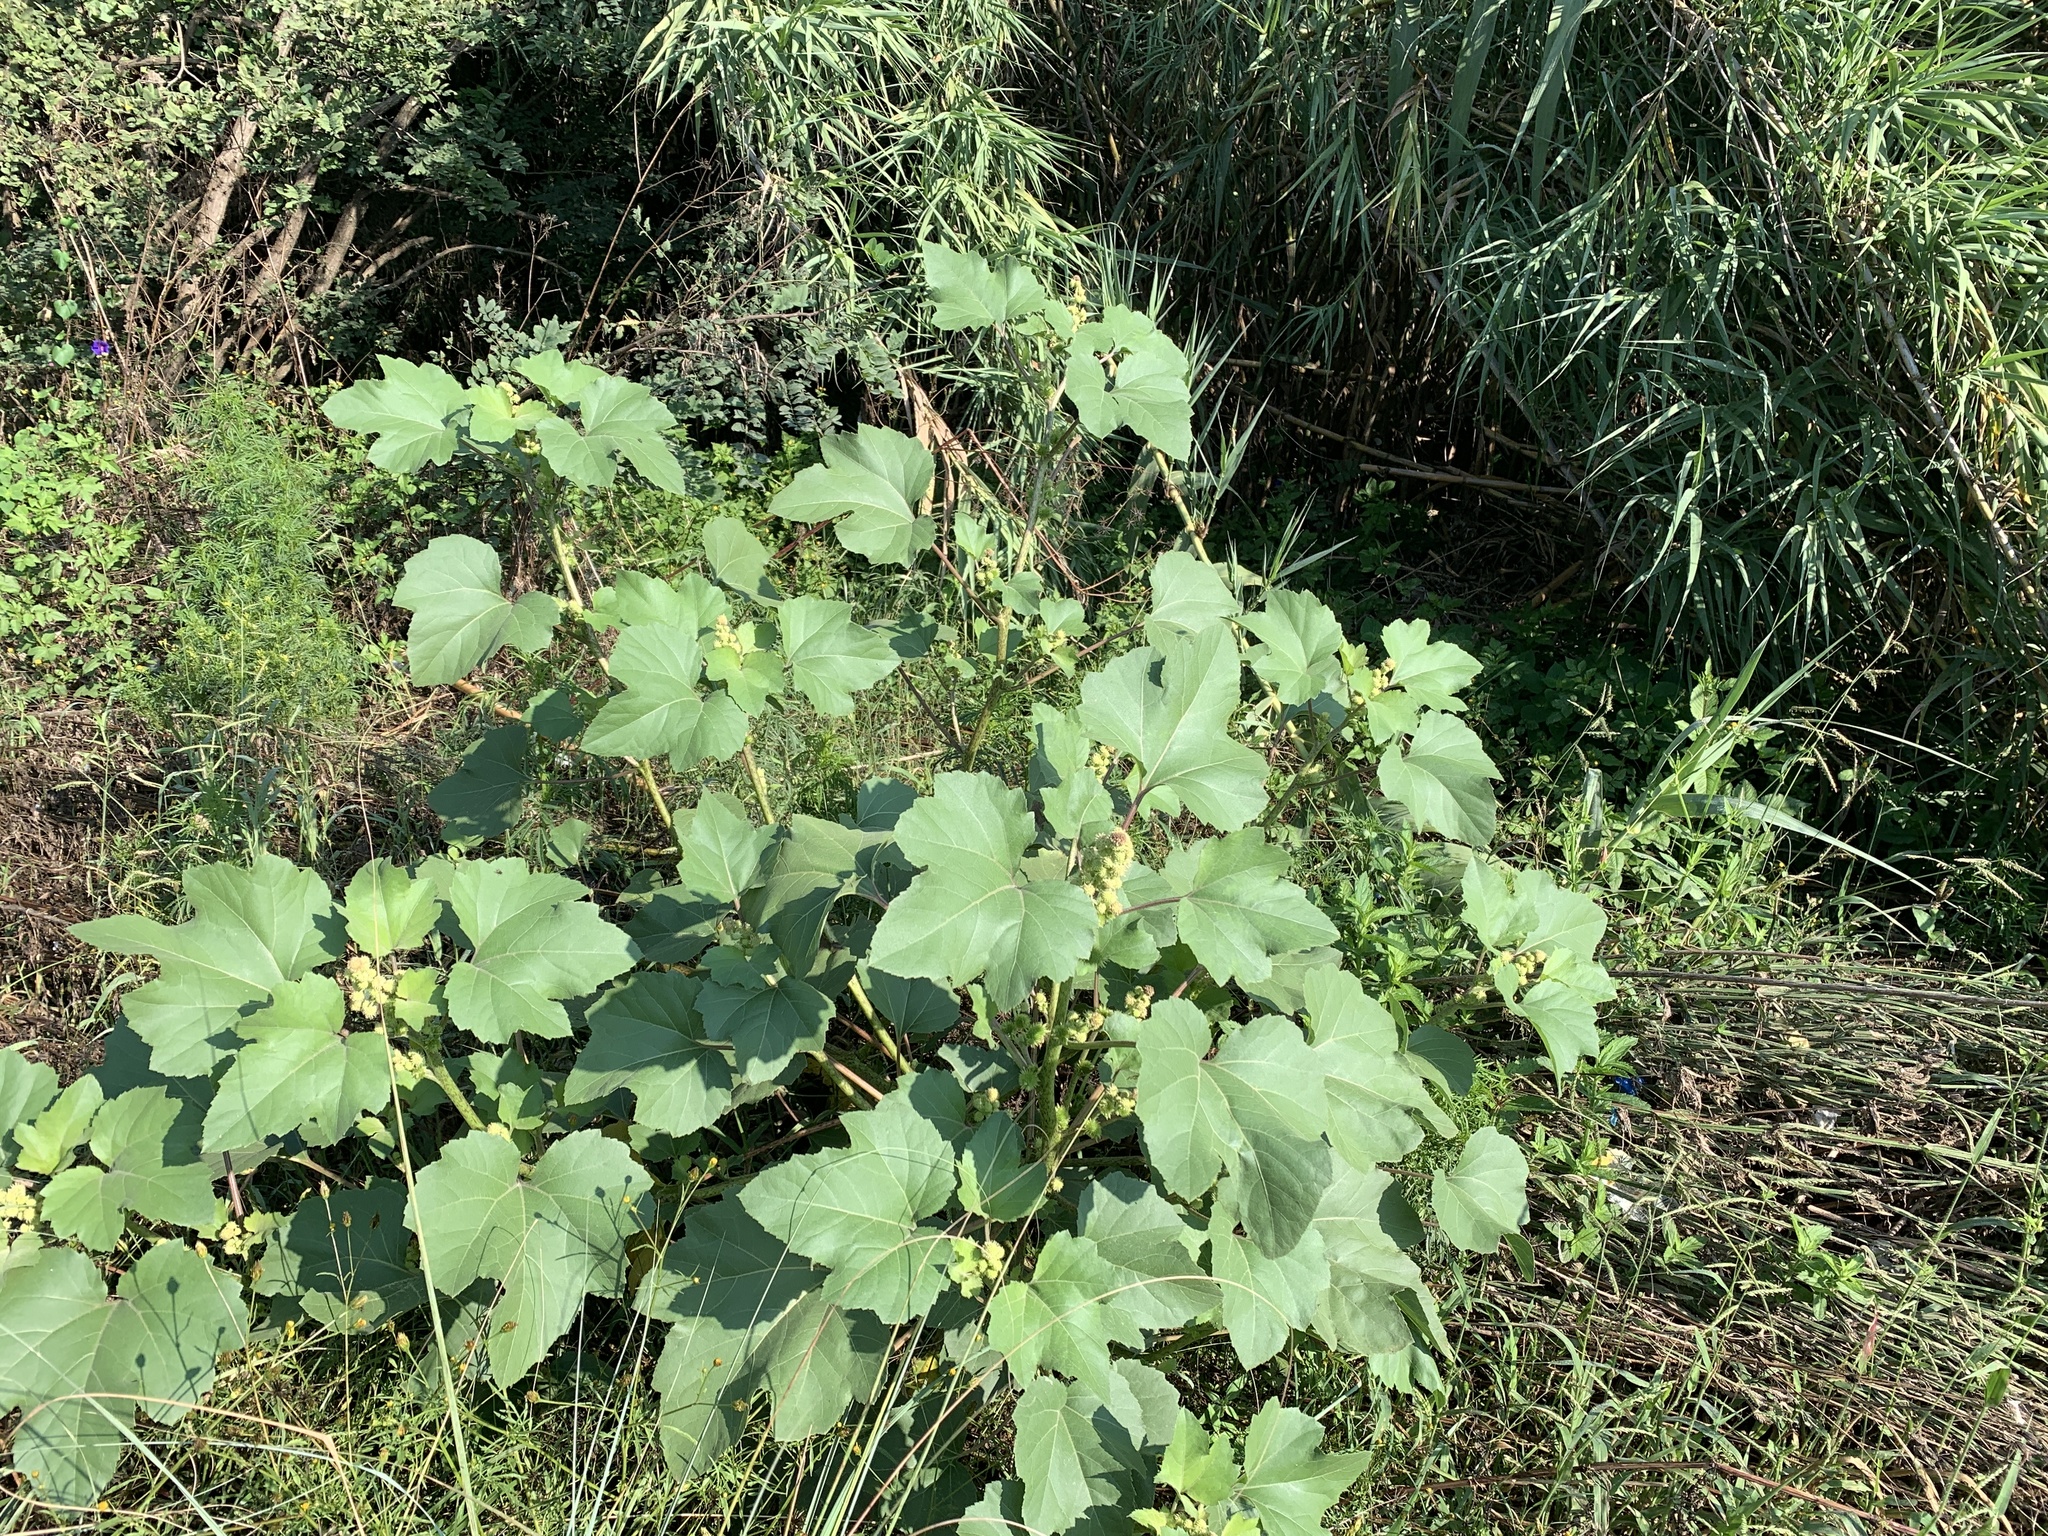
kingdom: Plantae
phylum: Tracheophyta
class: Magnoliopsida
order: Asterales
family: Asteraceae
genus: Xanthium
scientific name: Xanthium strumarium
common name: Rough cocklebur
